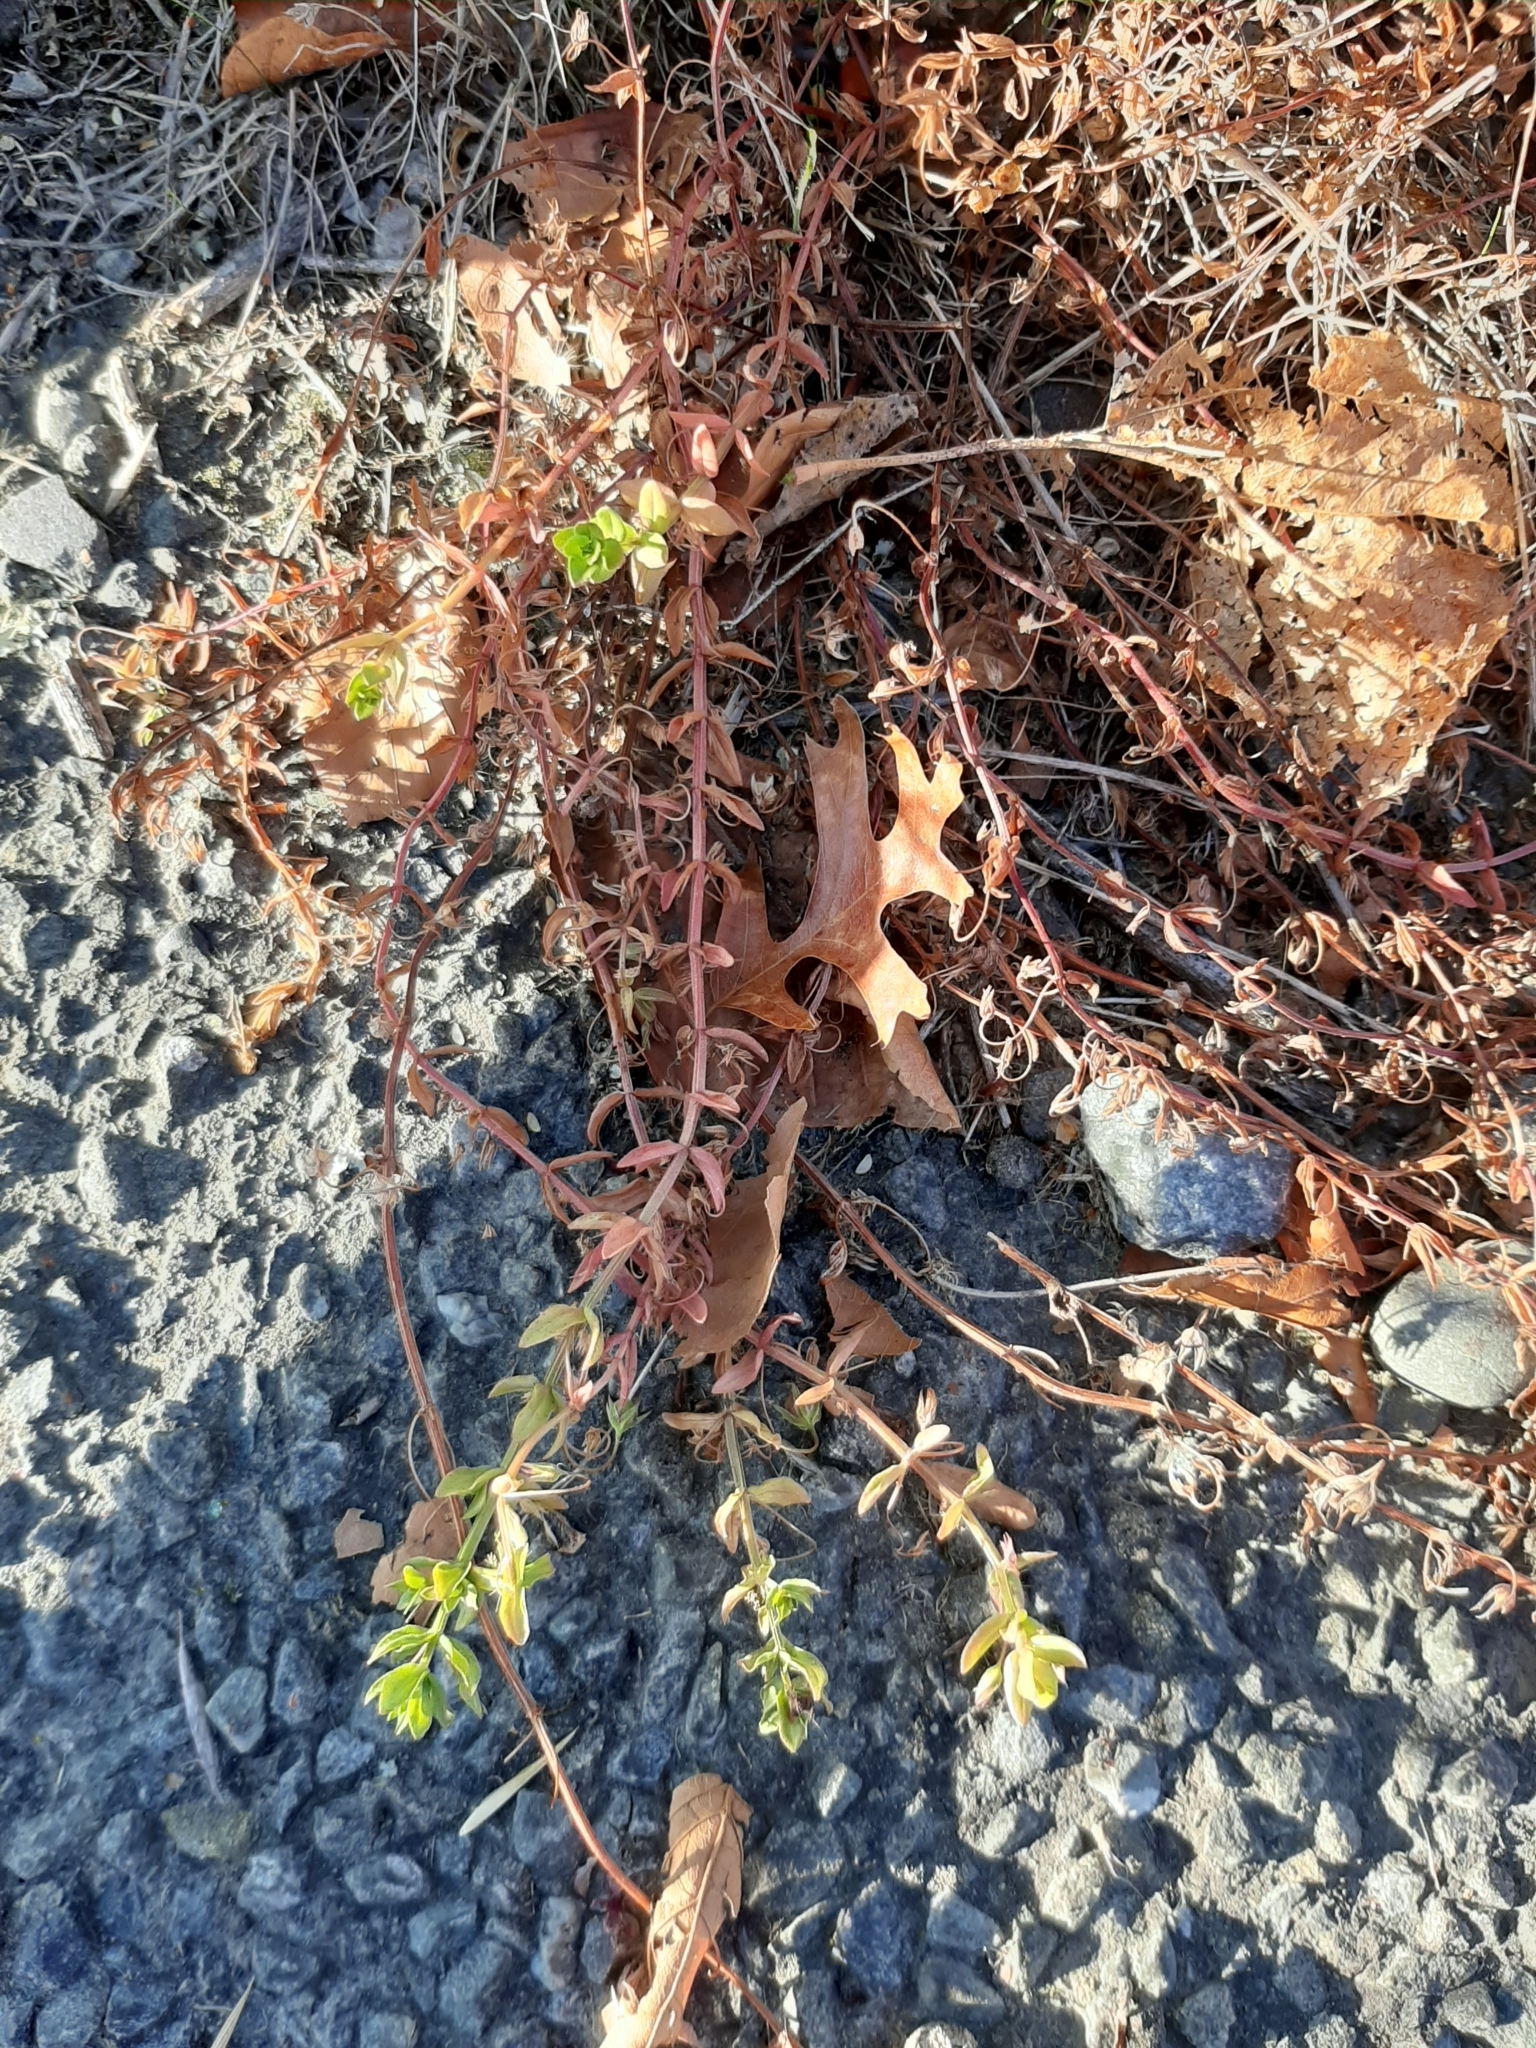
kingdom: Plantae
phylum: Tracheophyta
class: Magnoliopsida
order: Ericales
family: Primulaceae
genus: Lysimachia
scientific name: Lysimachia arvensis
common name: Scarlet pimpernel
